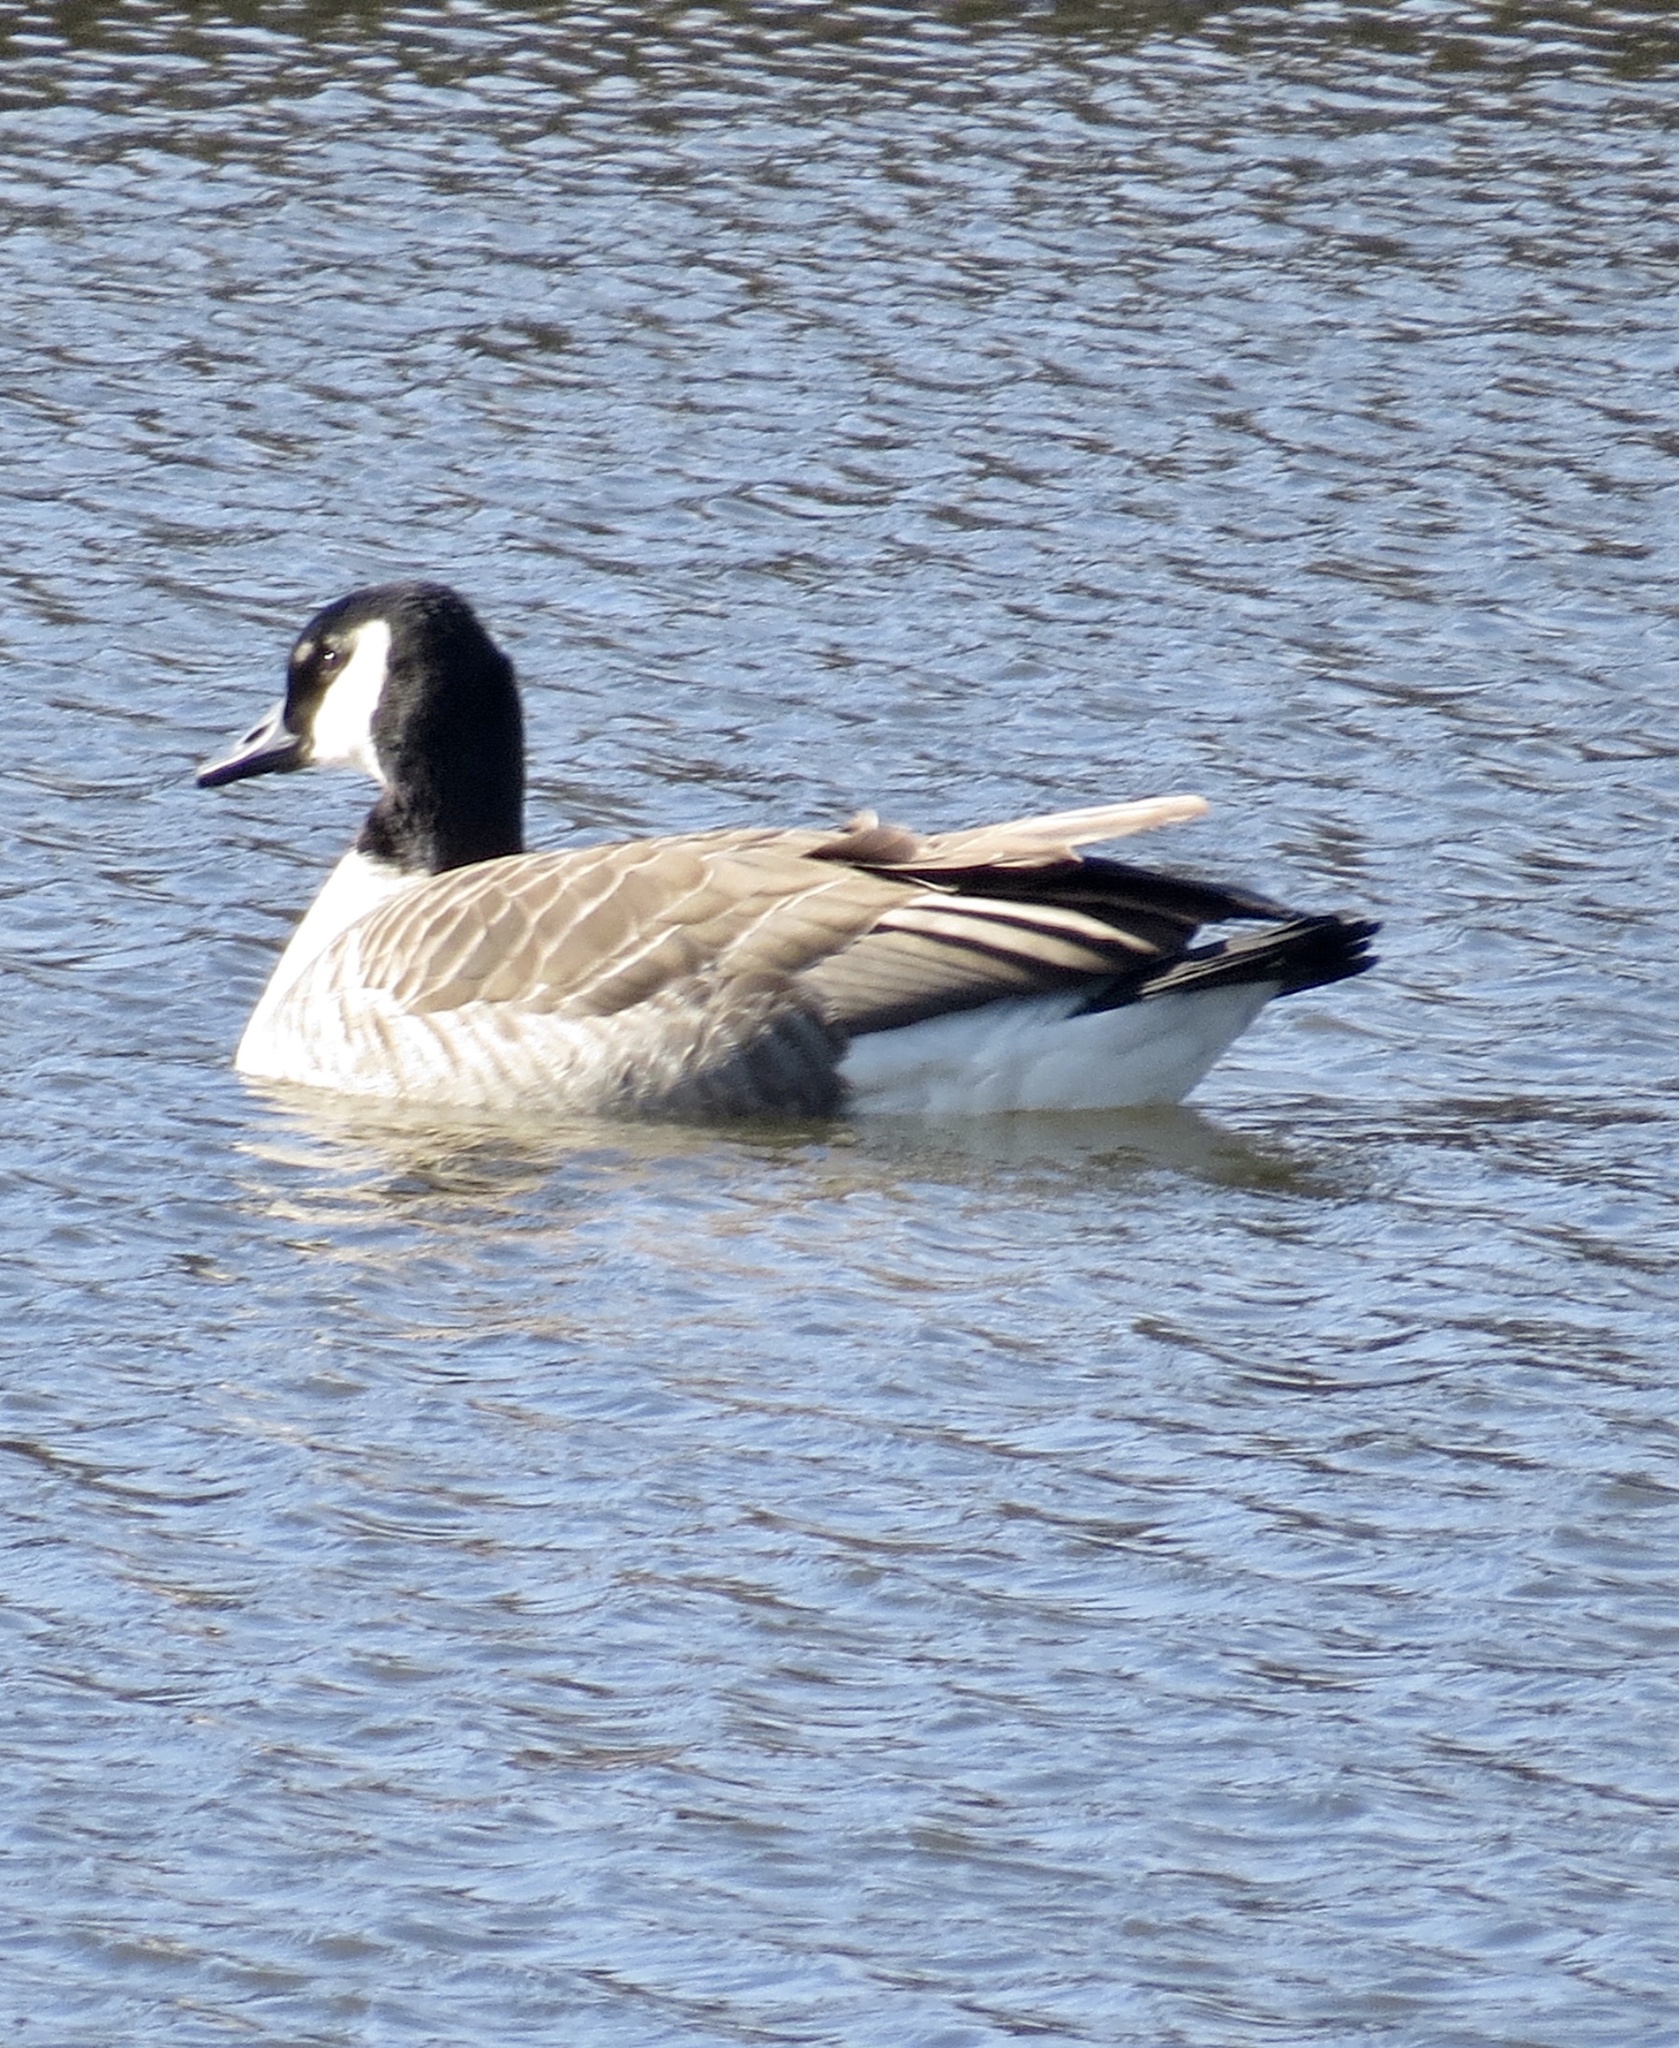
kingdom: Animalia
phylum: Chordata
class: Aves
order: Anseriformes
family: Anatidae
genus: Branta
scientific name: Branta canadensis
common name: Canada goose
